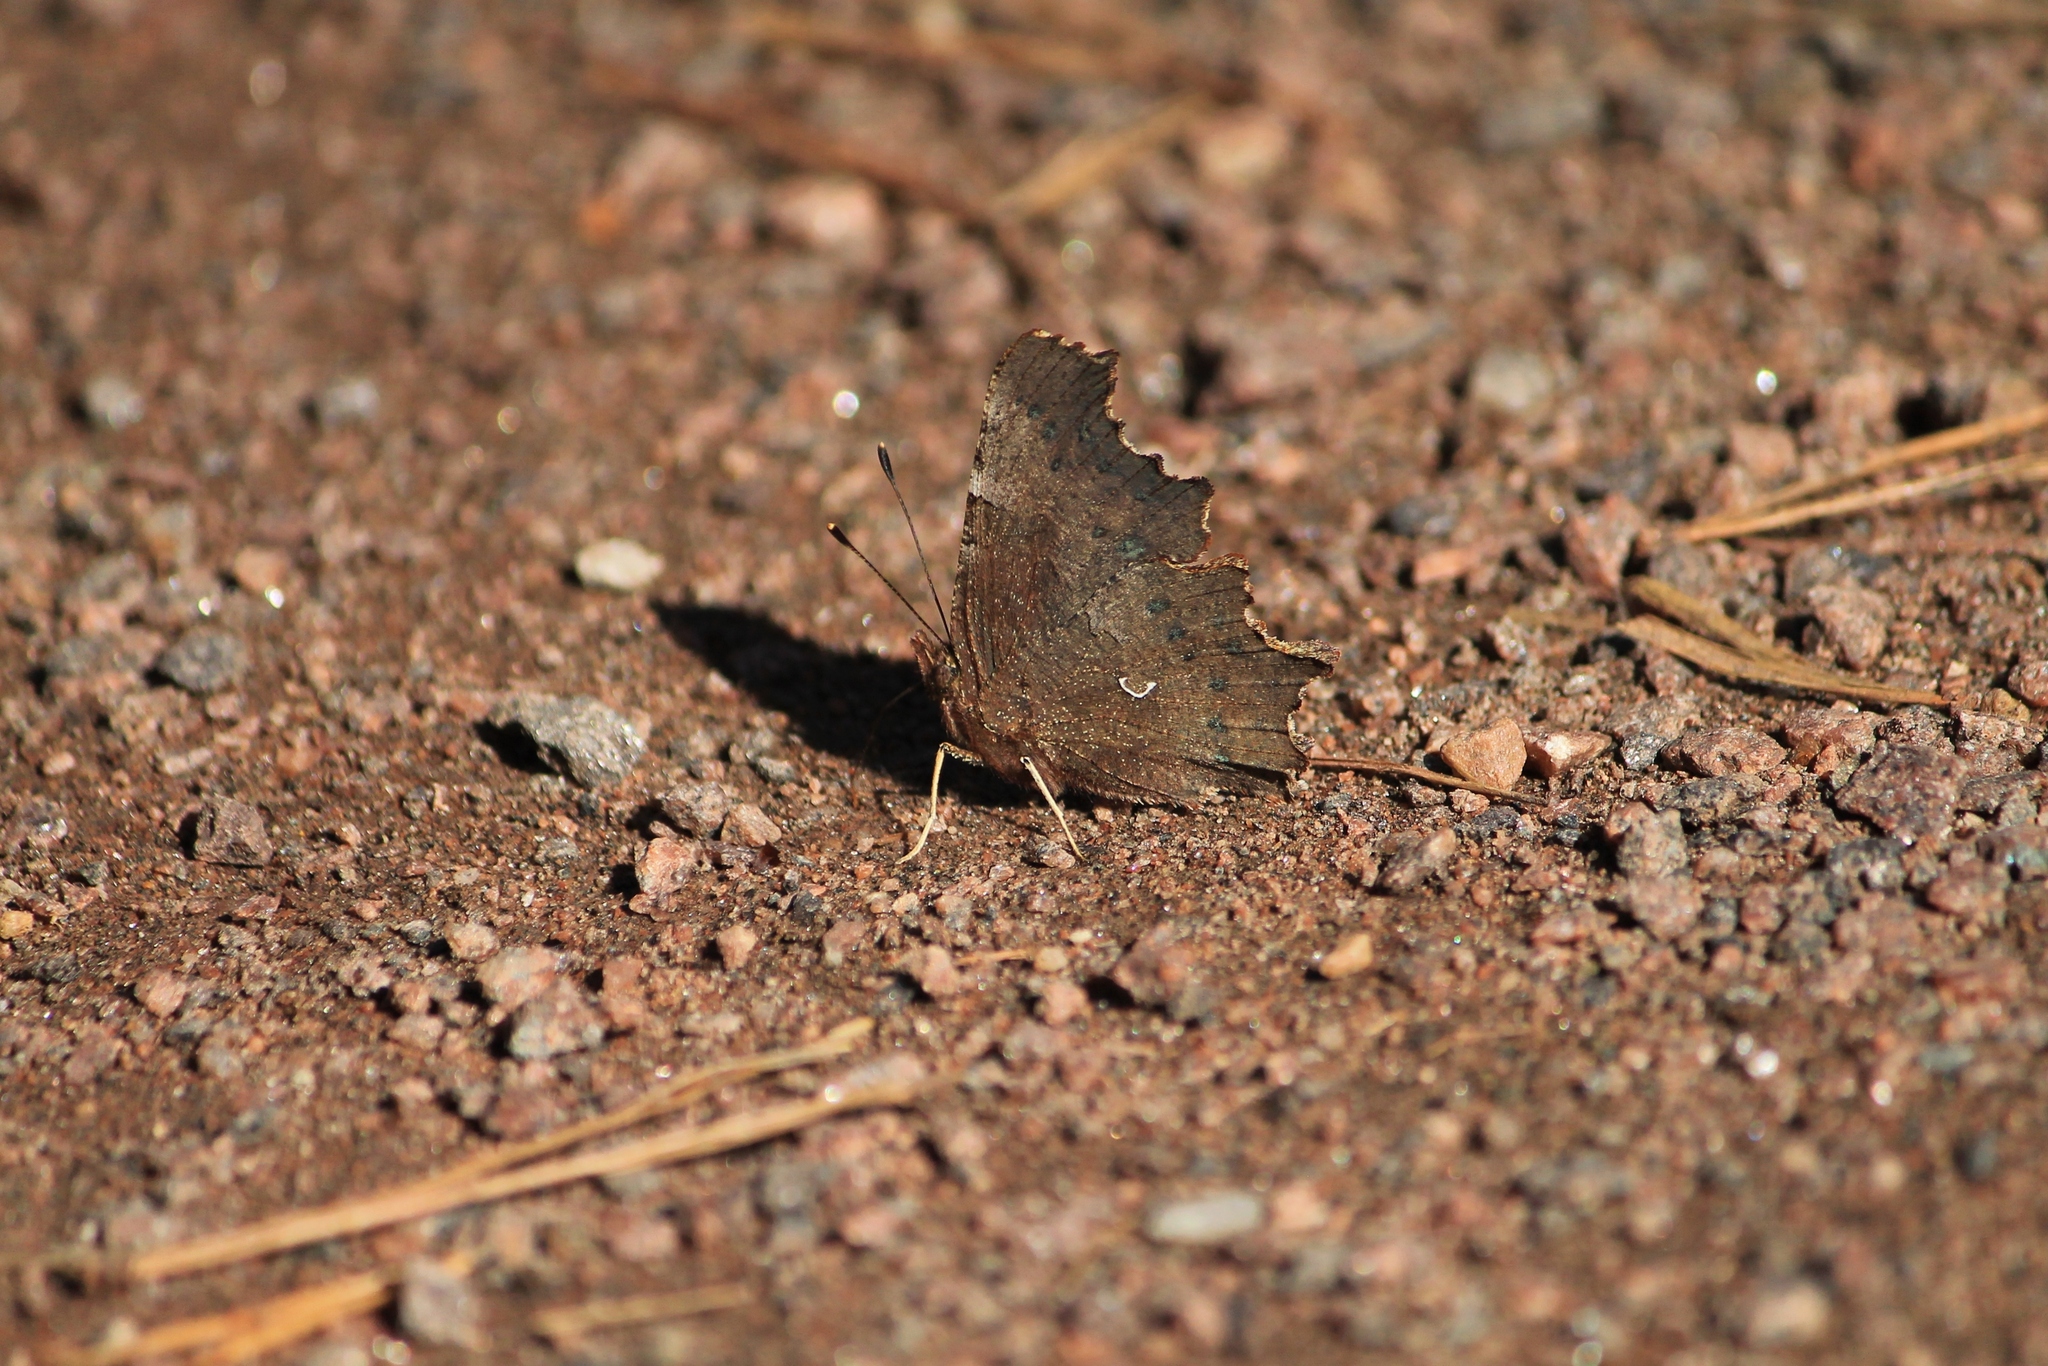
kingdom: Animalia
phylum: Arthropoda
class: Insecta
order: Lepidoptera
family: Nymphalidae
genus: Polygonia
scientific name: Polygonia c-album
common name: Comma
